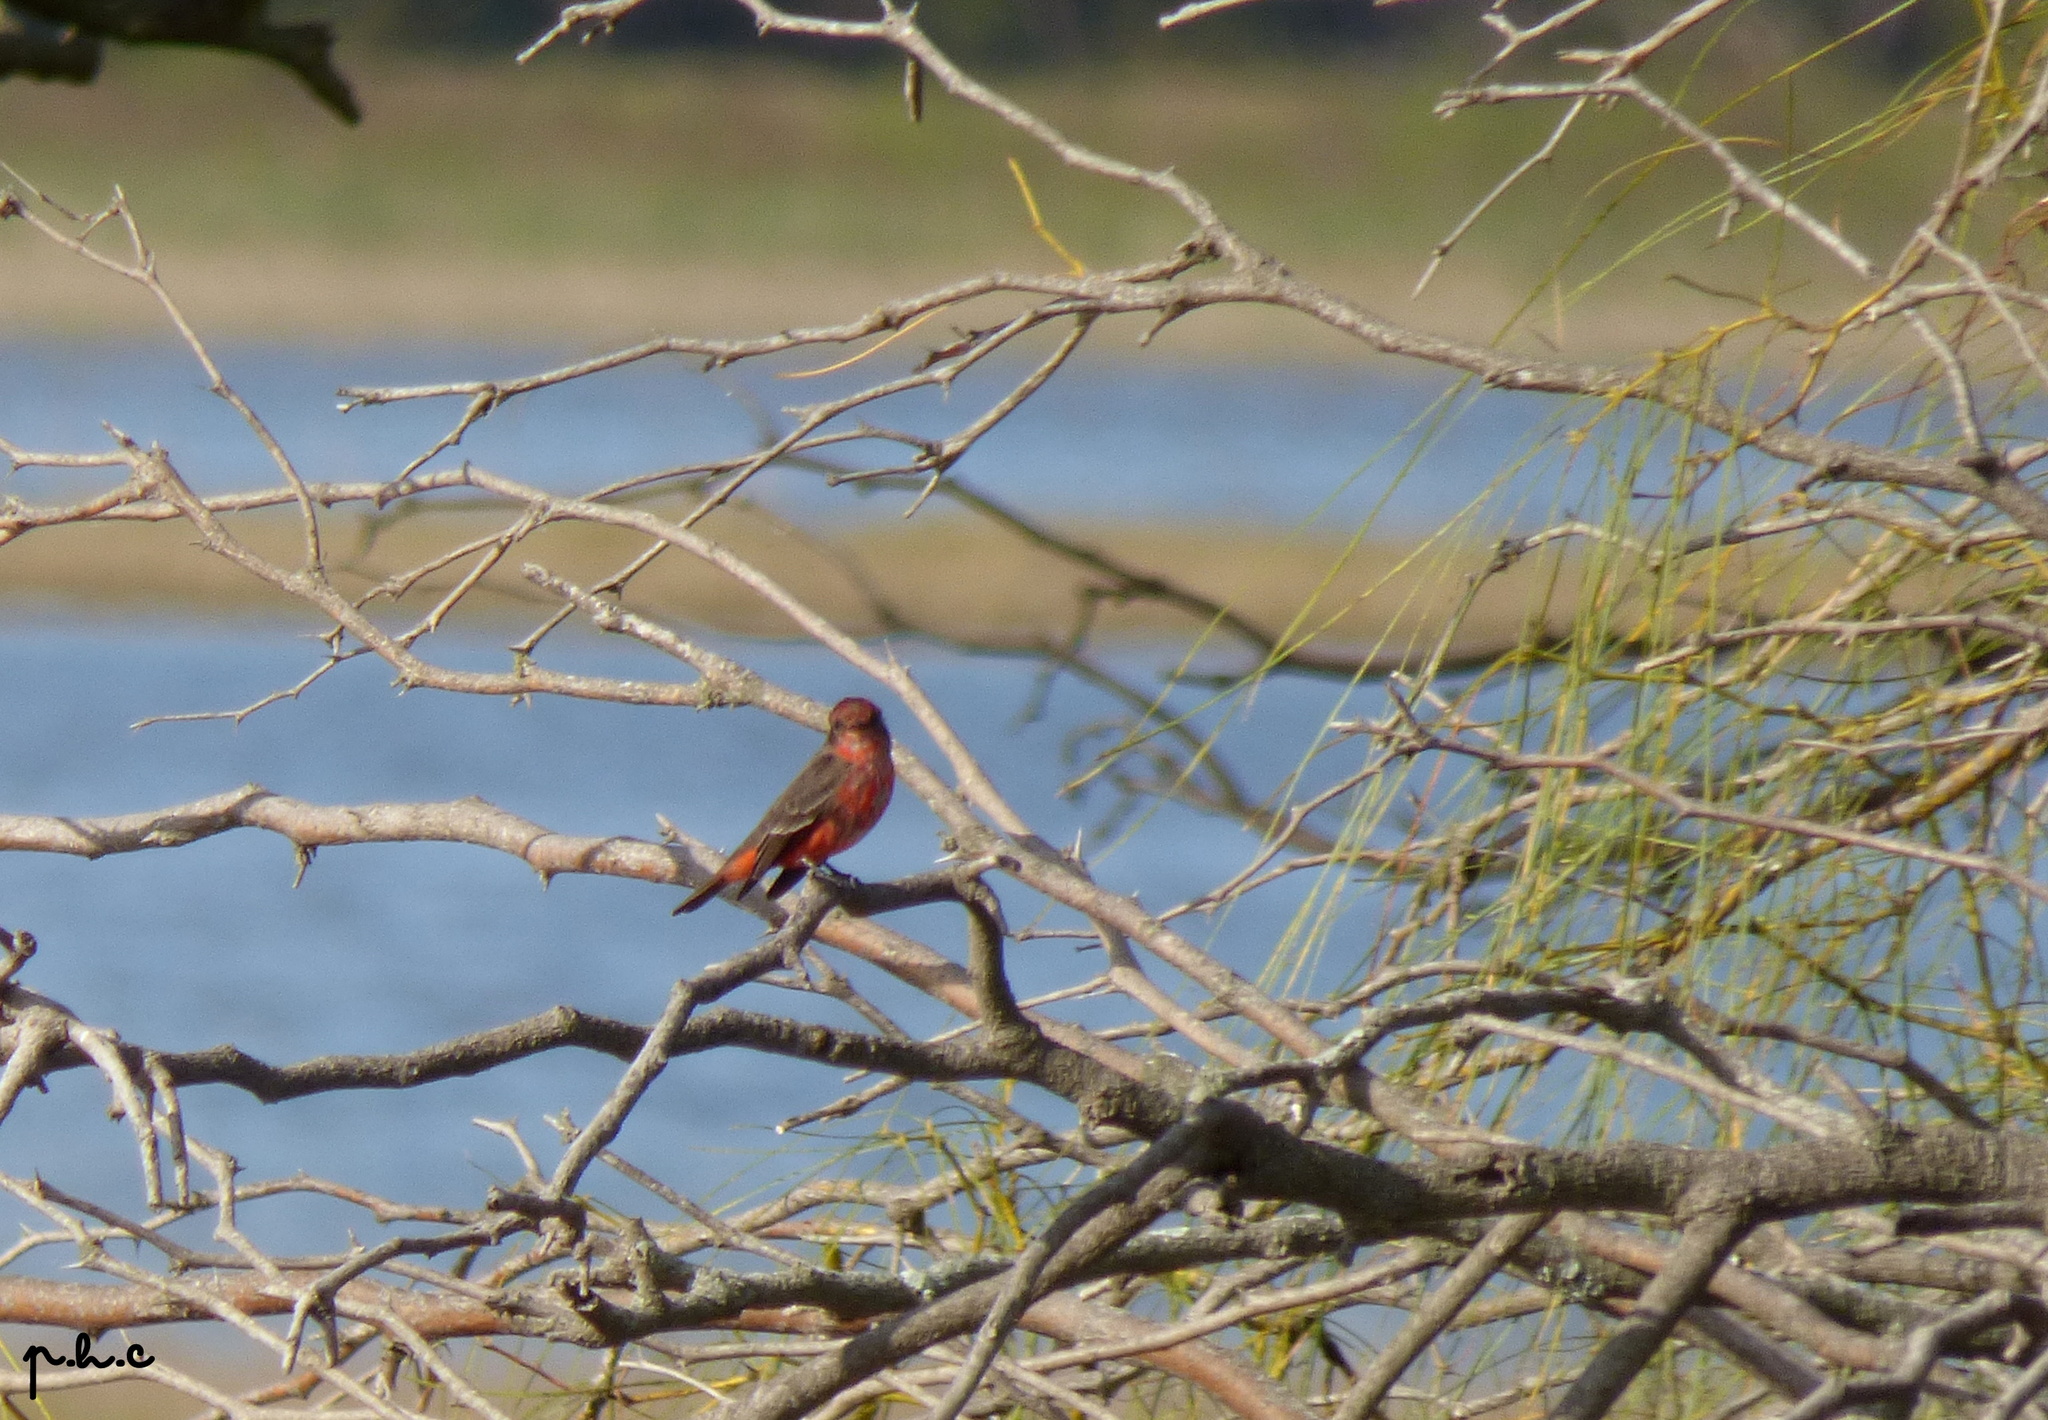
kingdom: Animalia
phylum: Chordata
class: Aves
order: Passeriformes
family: Tyrannidae
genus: Pyrocephalus
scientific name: Pyrocephalus rubinus
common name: Vermilion flycatcher
